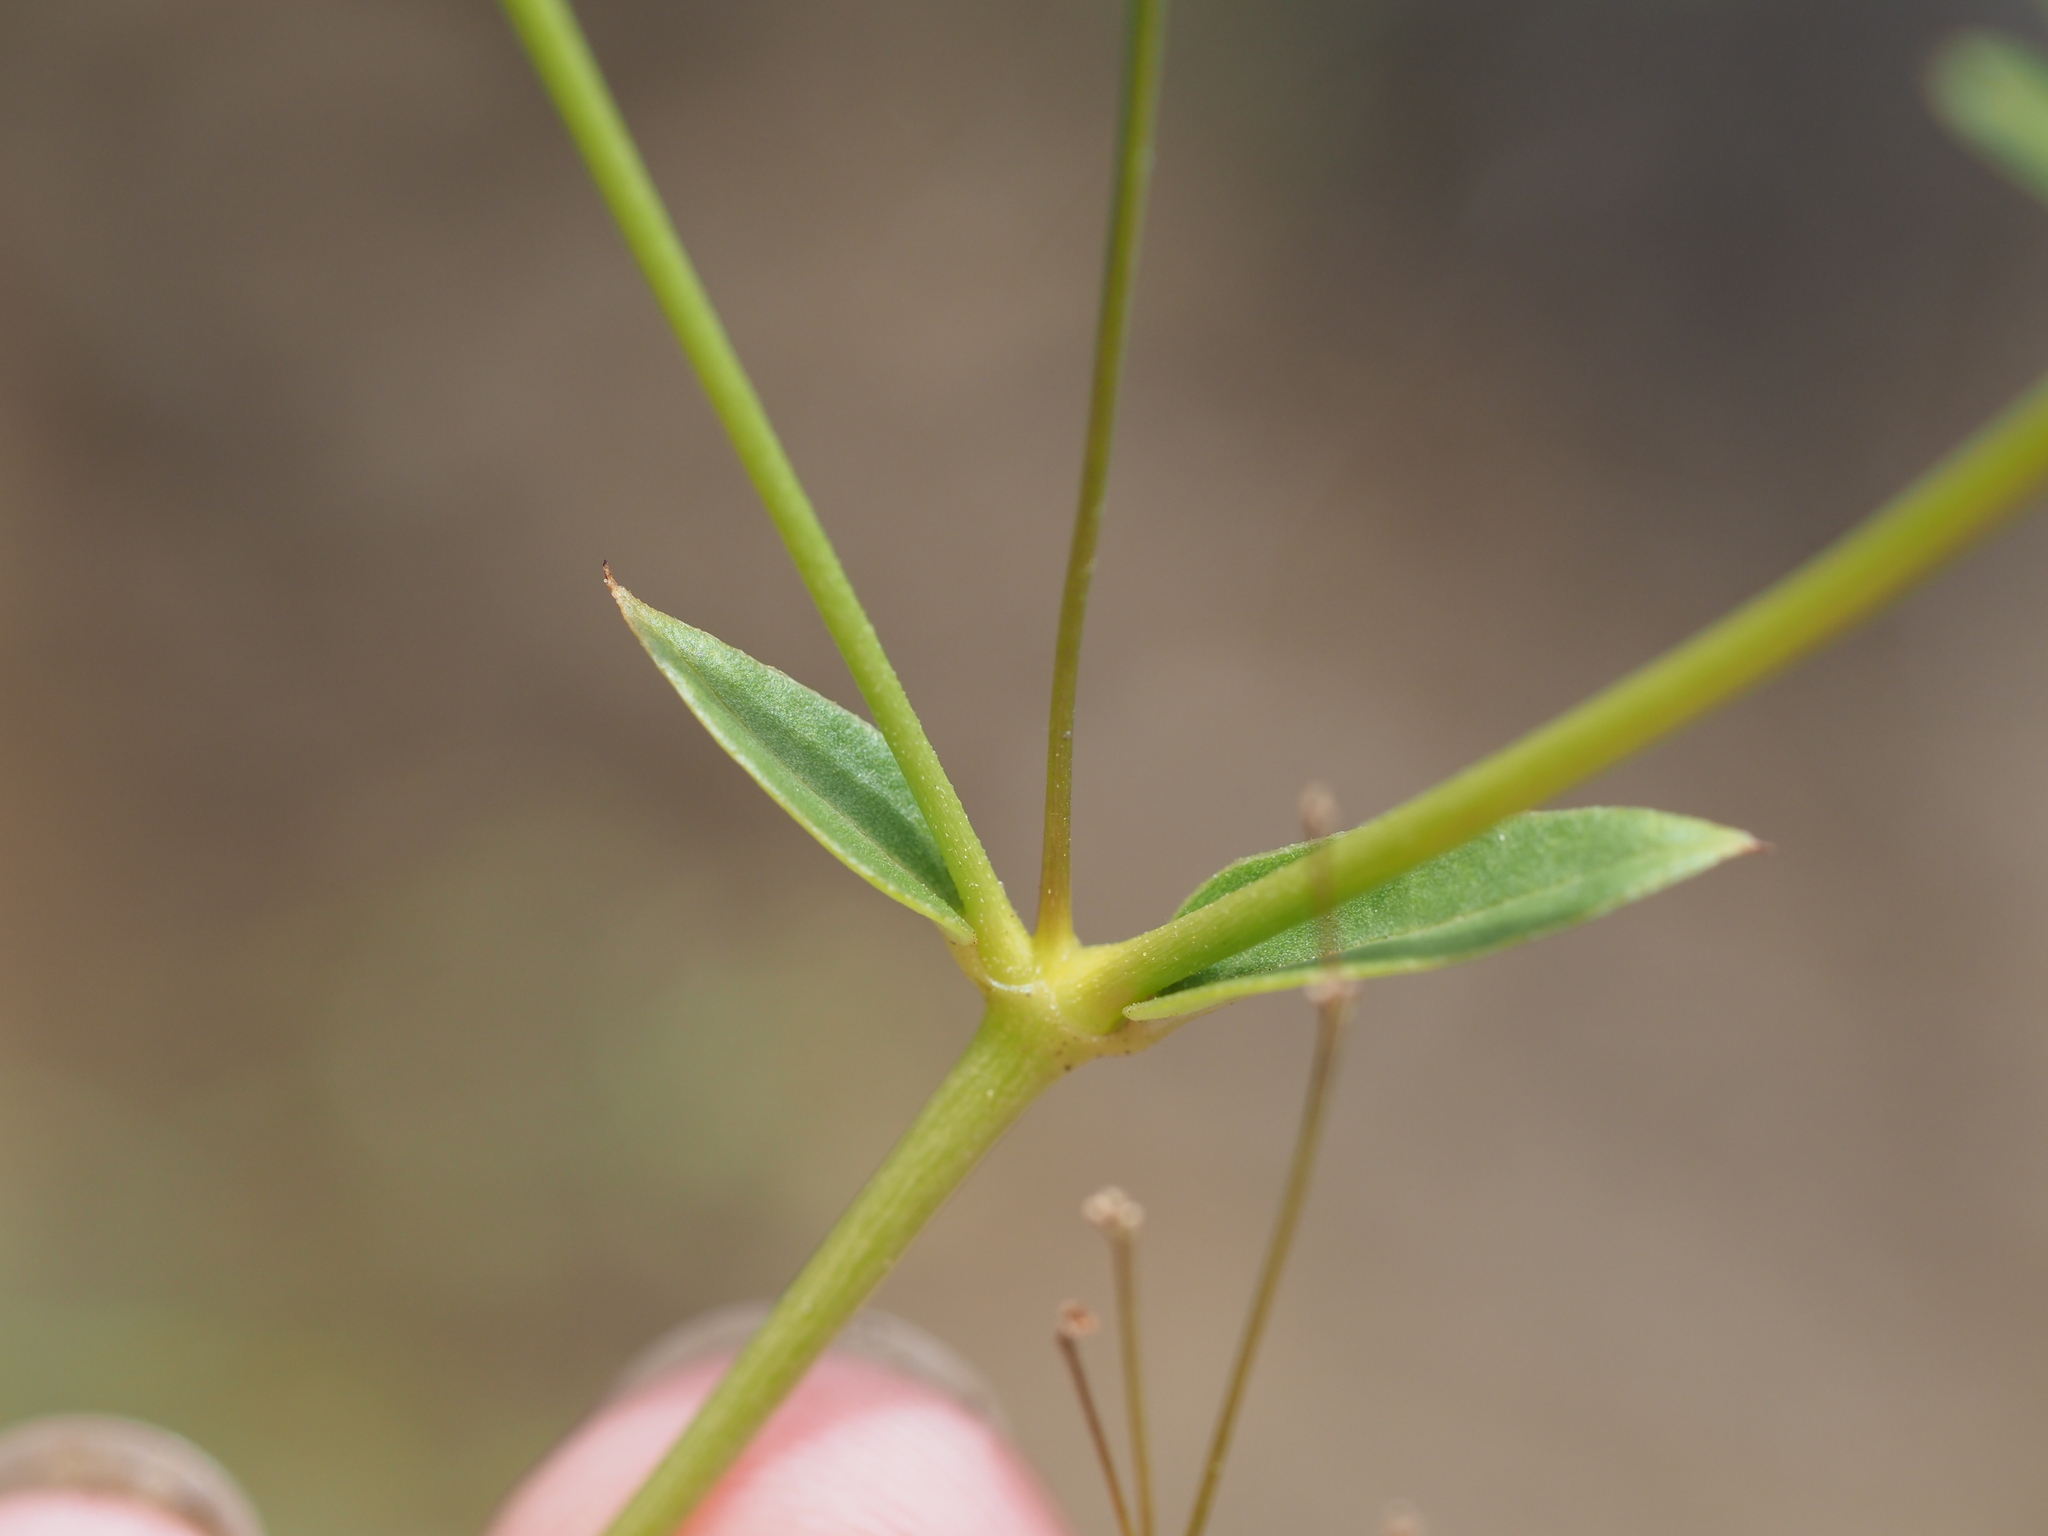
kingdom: Plantae
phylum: Tracheophyta
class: Magnoliopsida
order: Caryophyllales
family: Nyctaginaceae
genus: Boerhavia
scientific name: Boerhavia glabrata
